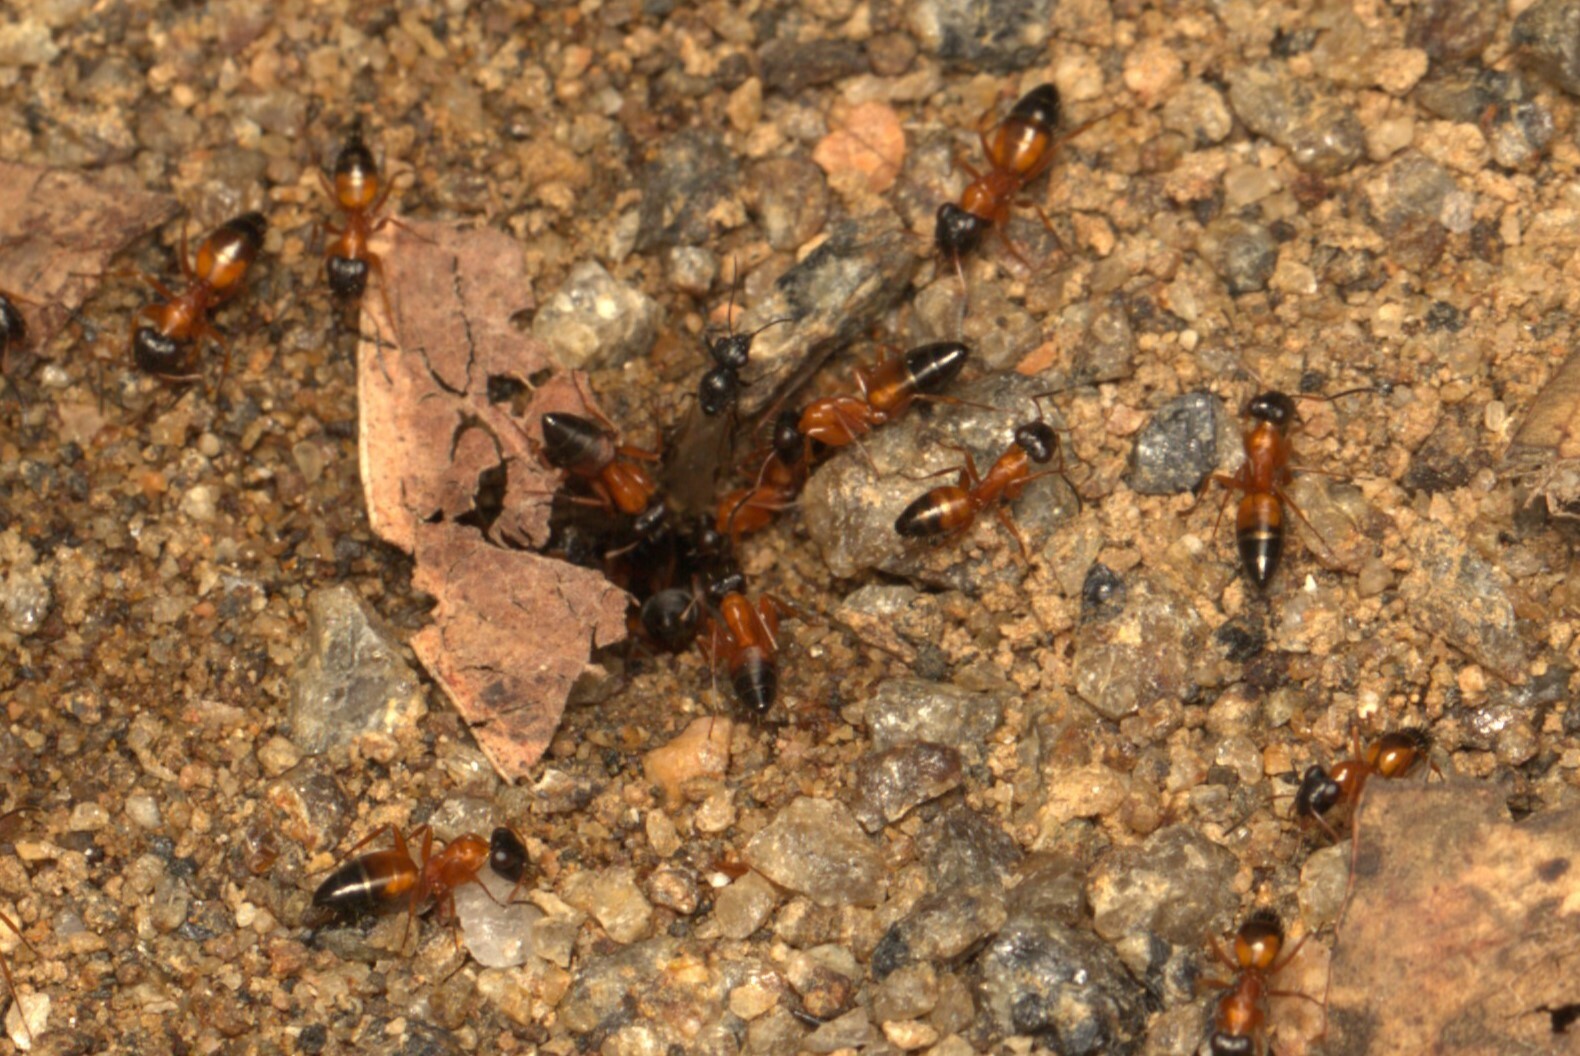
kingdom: Animalia
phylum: Arthropoda
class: Insecta
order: Hymenoptera
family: Formicidae
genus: Opisthopsis
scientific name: Opisthopsis rufithorax
